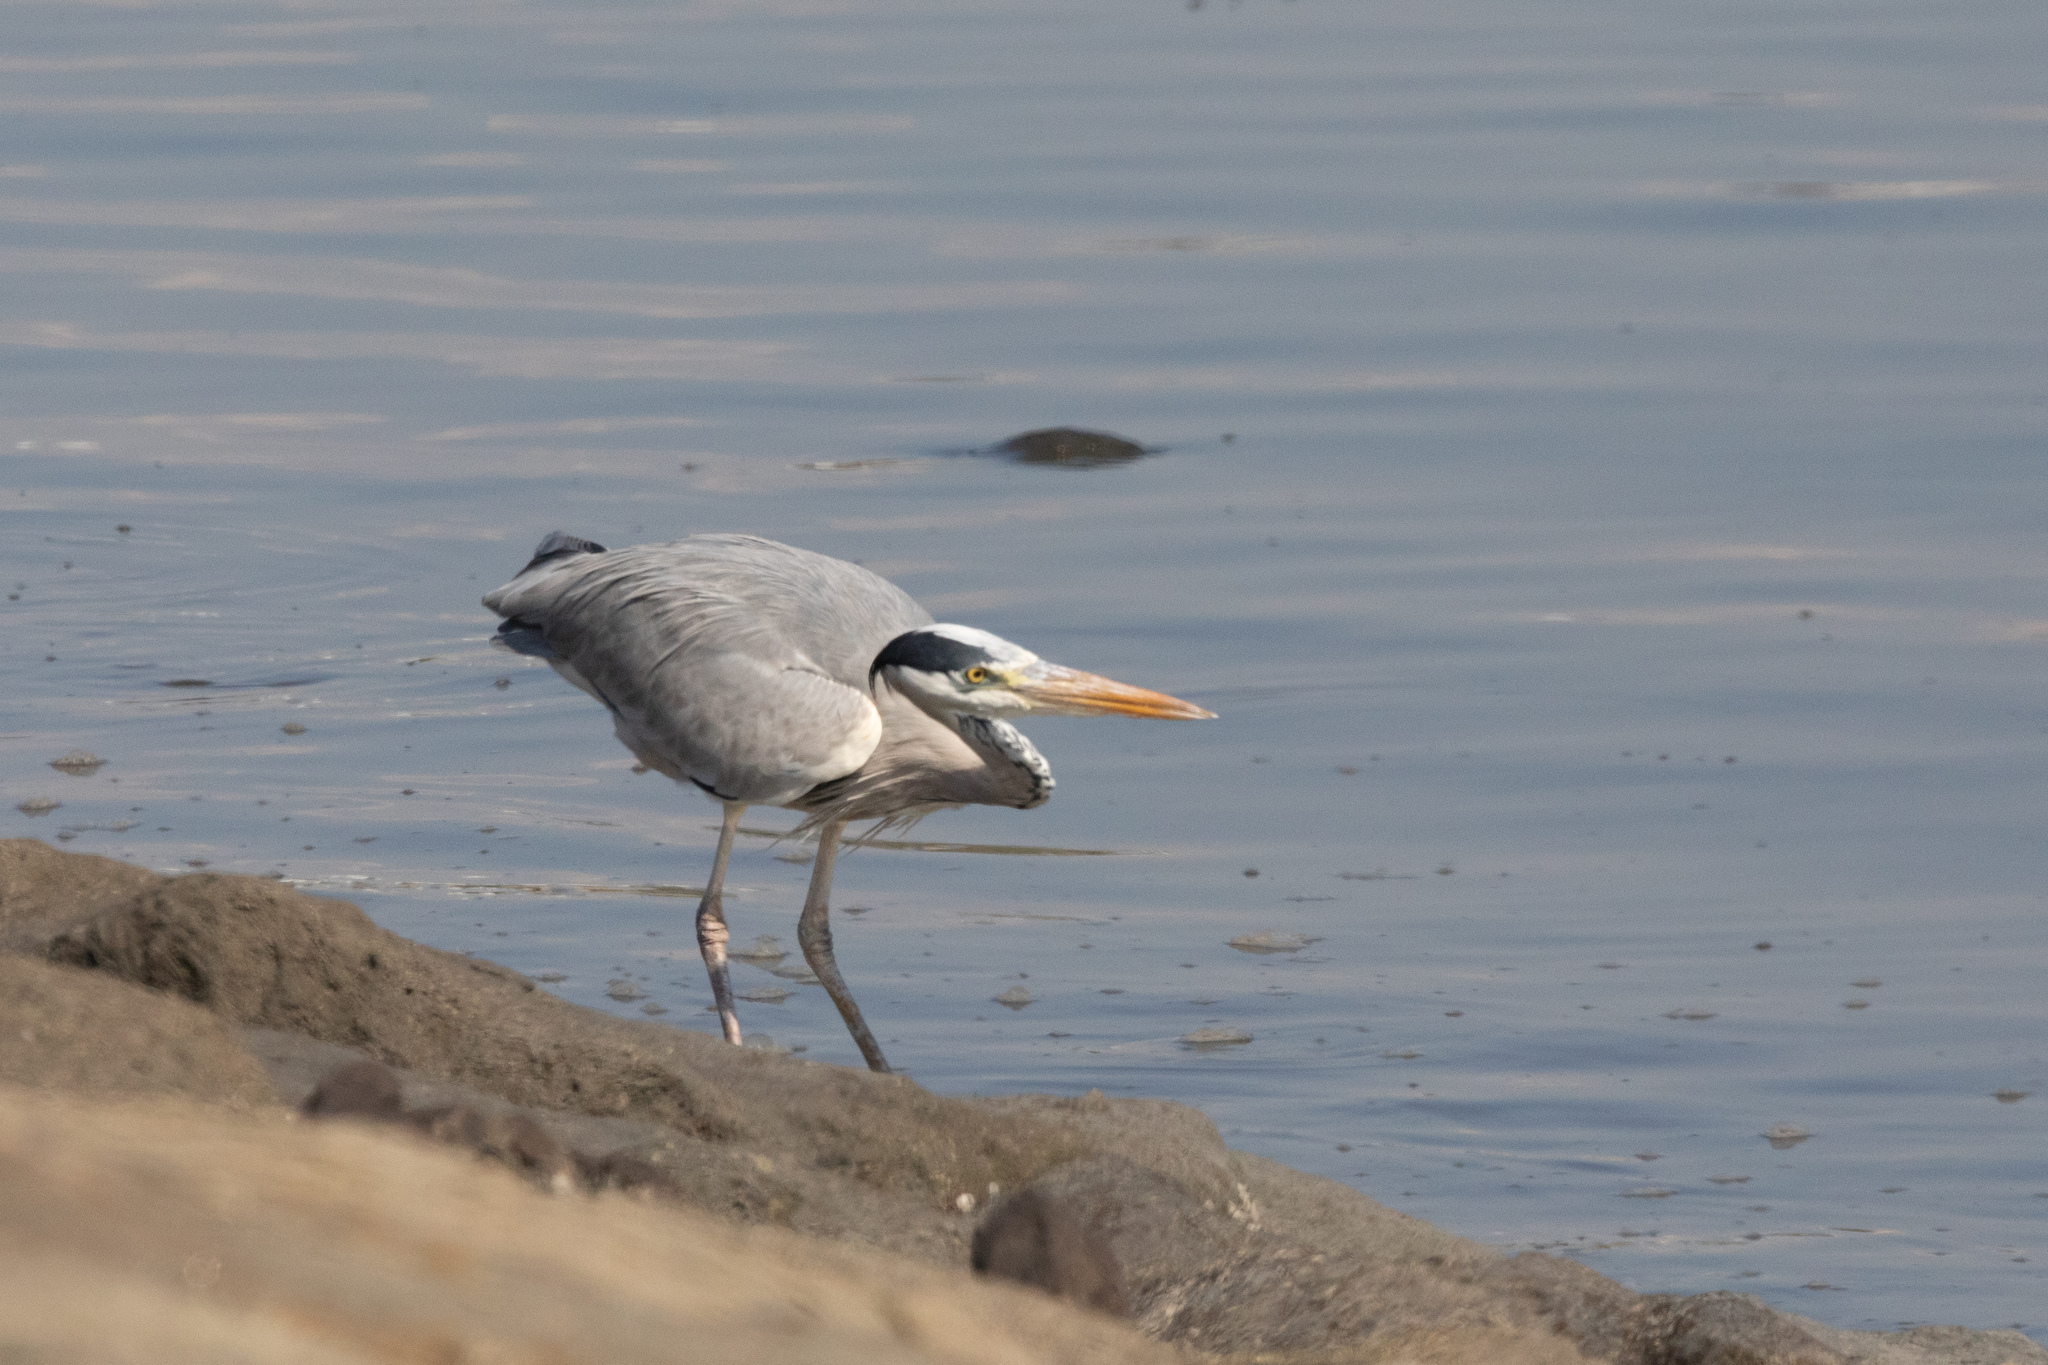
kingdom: Animalia
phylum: Chordata
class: Aves
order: Pelecaniformes
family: Ardeidae
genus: Ardea
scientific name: Ardea cinerea
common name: Grey heron
